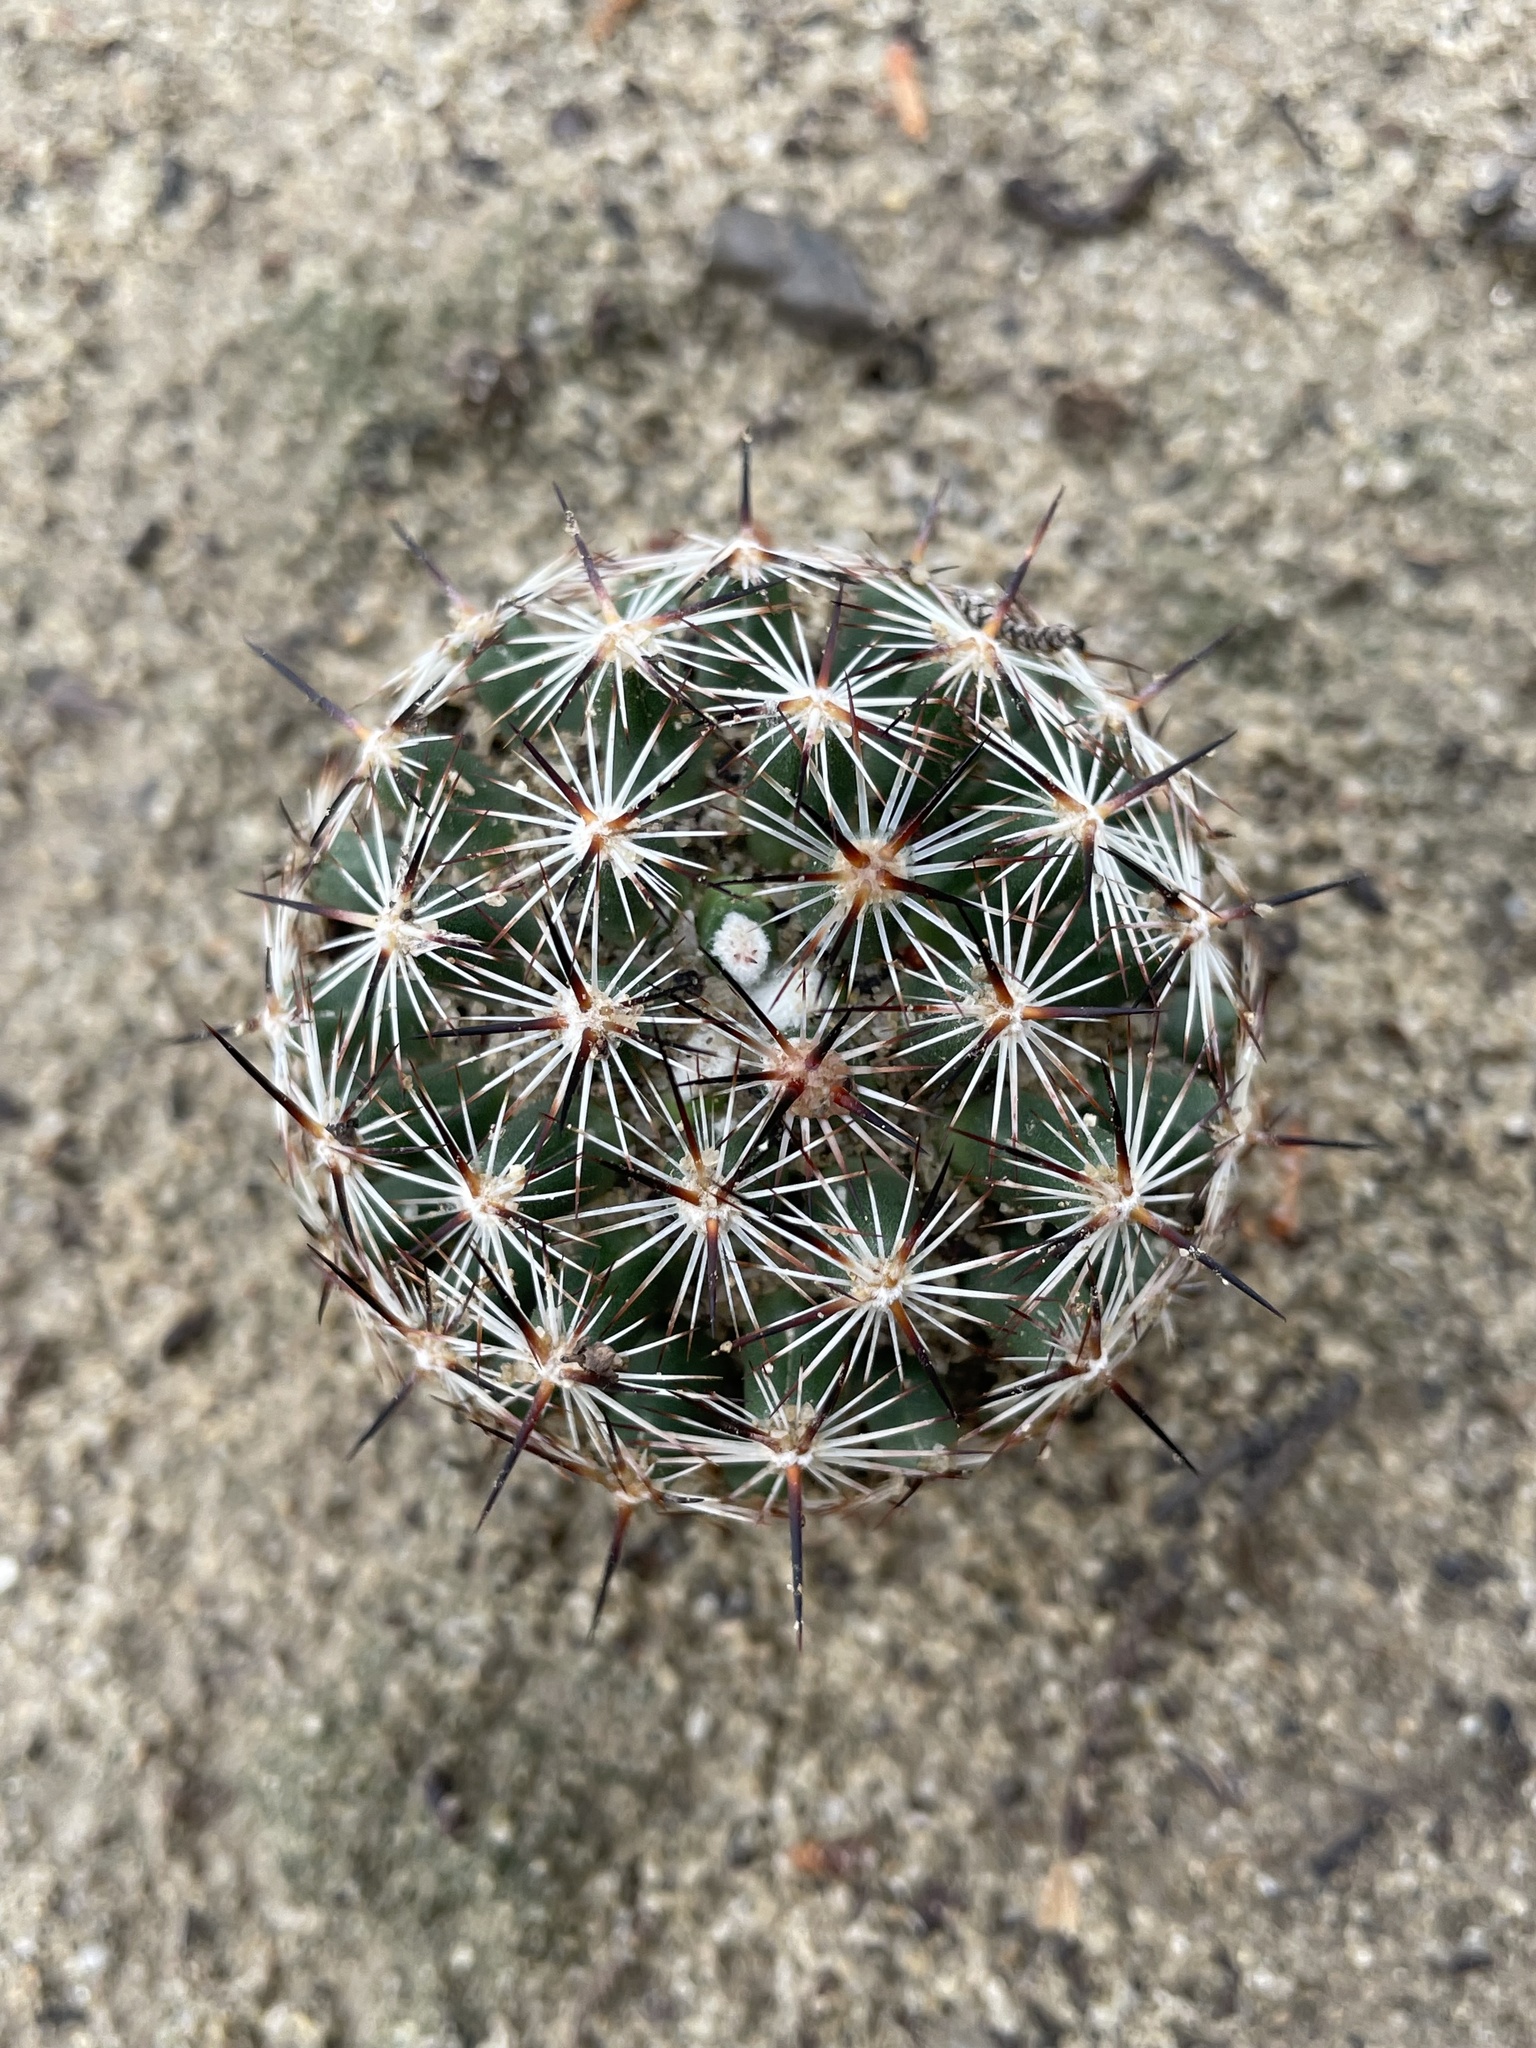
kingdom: Plantae
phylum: Tracheophyta
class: Magnoliopsida
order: Caryophyllales
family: Cactaceae
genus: Pelecyphora
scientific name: Pelecyphora vivipara
